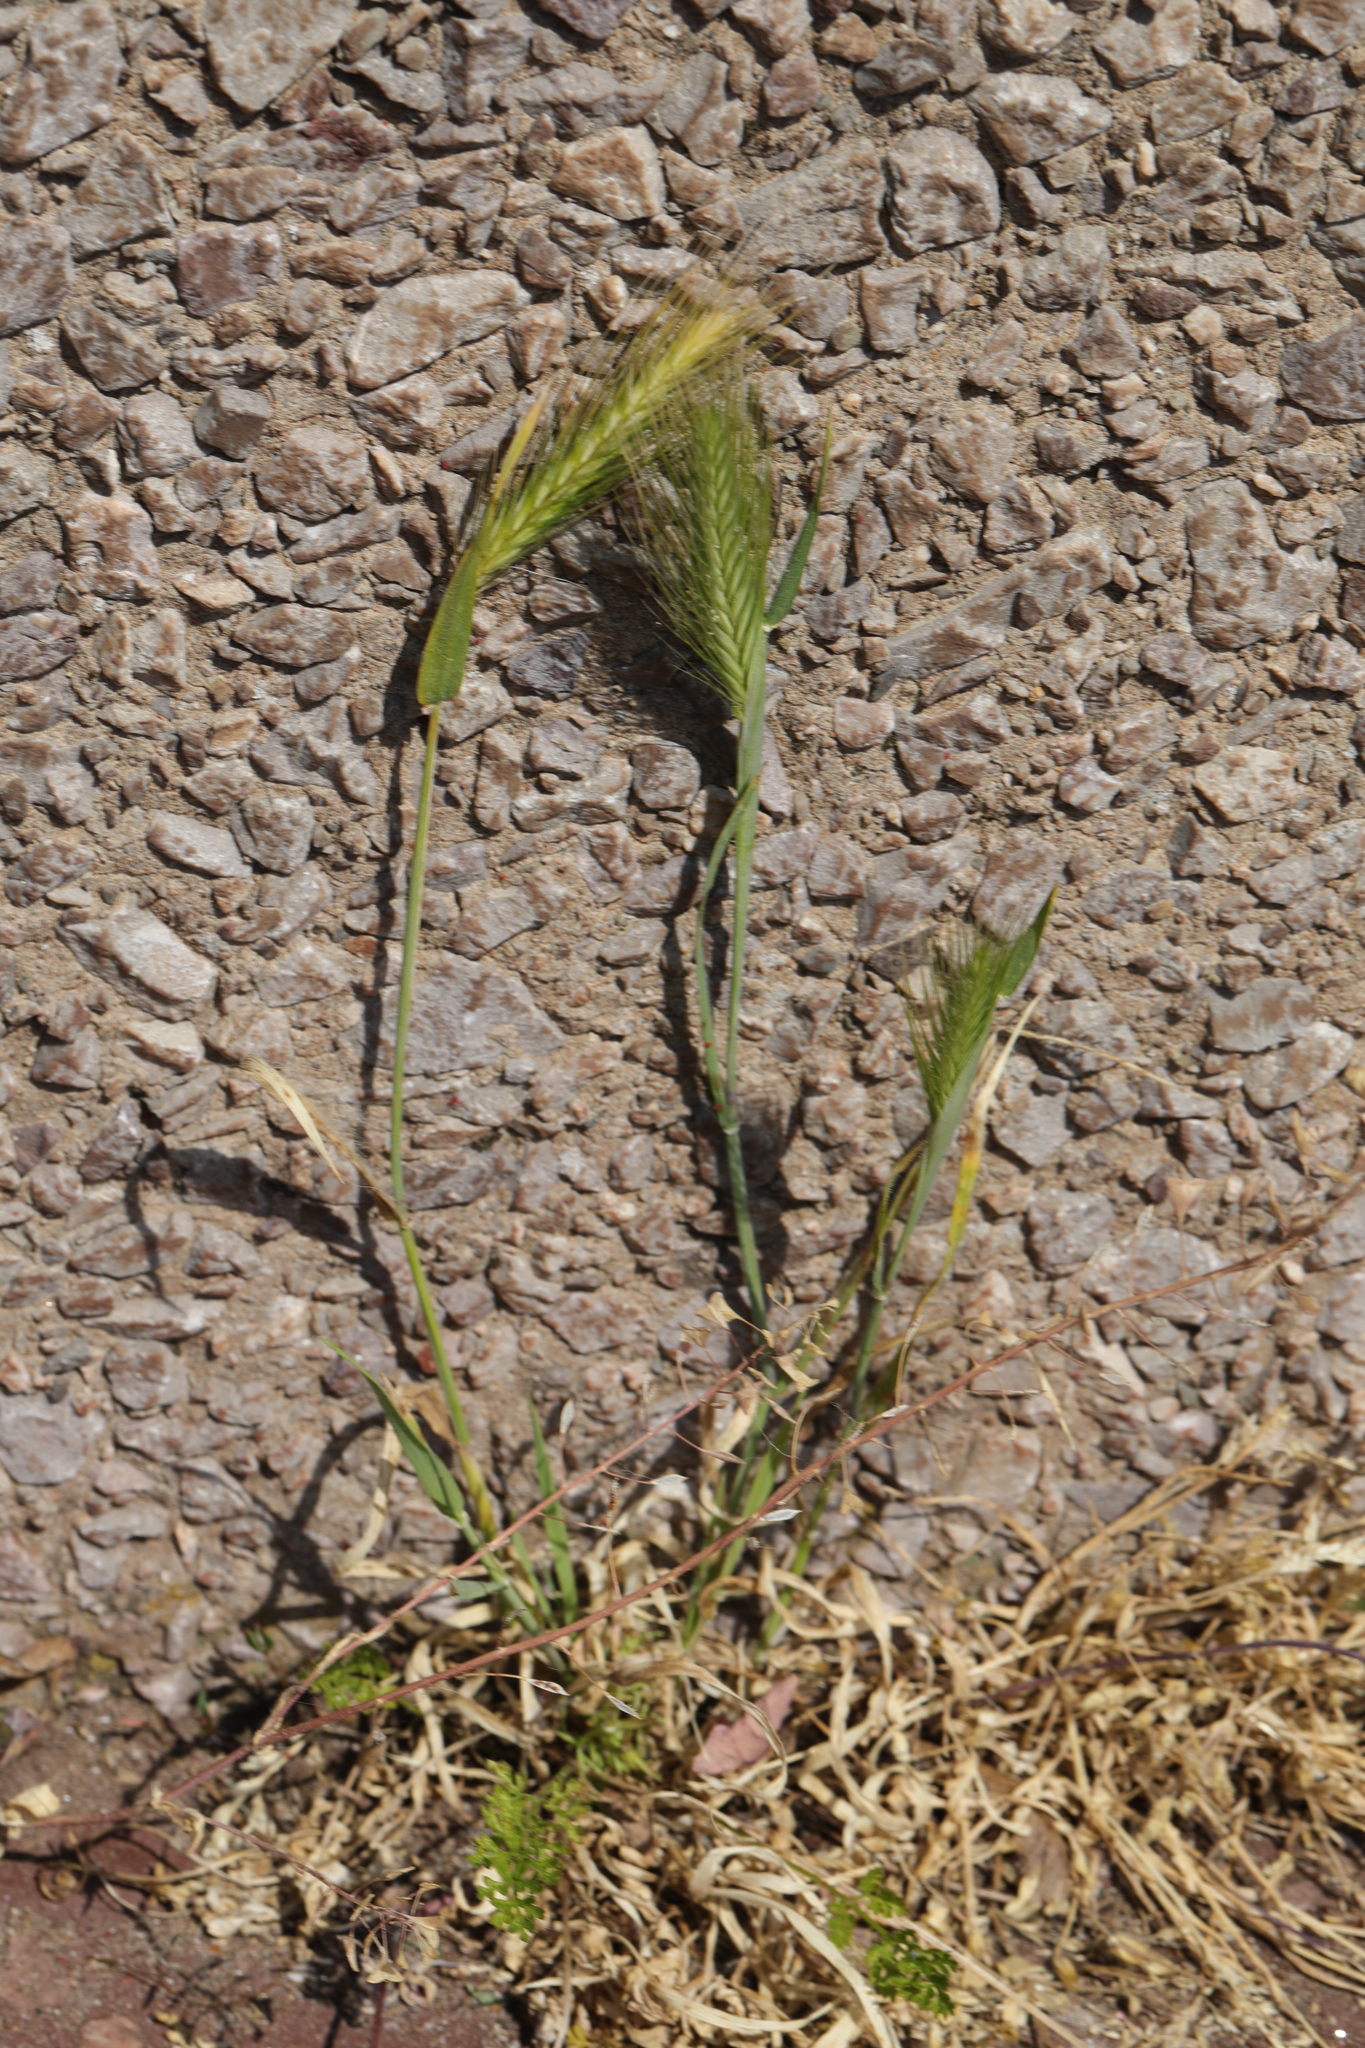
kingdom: Plantae
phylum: Tracheophyta
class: Liliopsida
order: Poales
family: Poaceae
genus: Hordeum
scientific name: Hordeum murinum
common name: Wall barley
